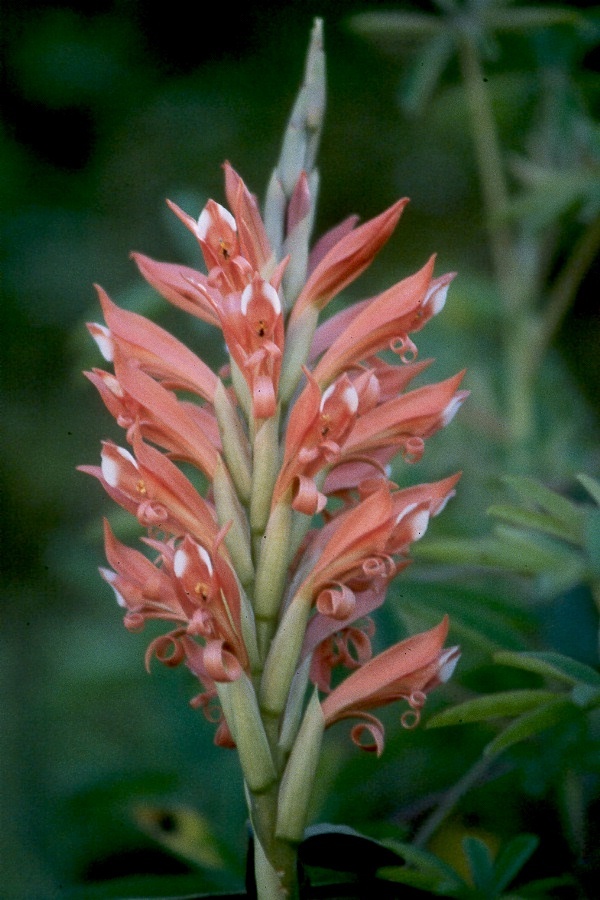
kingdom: Plantae
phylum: Tracheophyta
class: Liliopsida
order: Asparagales
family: Orchidaceae
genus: Porphyrostachys
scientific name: Porphyrostachys pilifera
